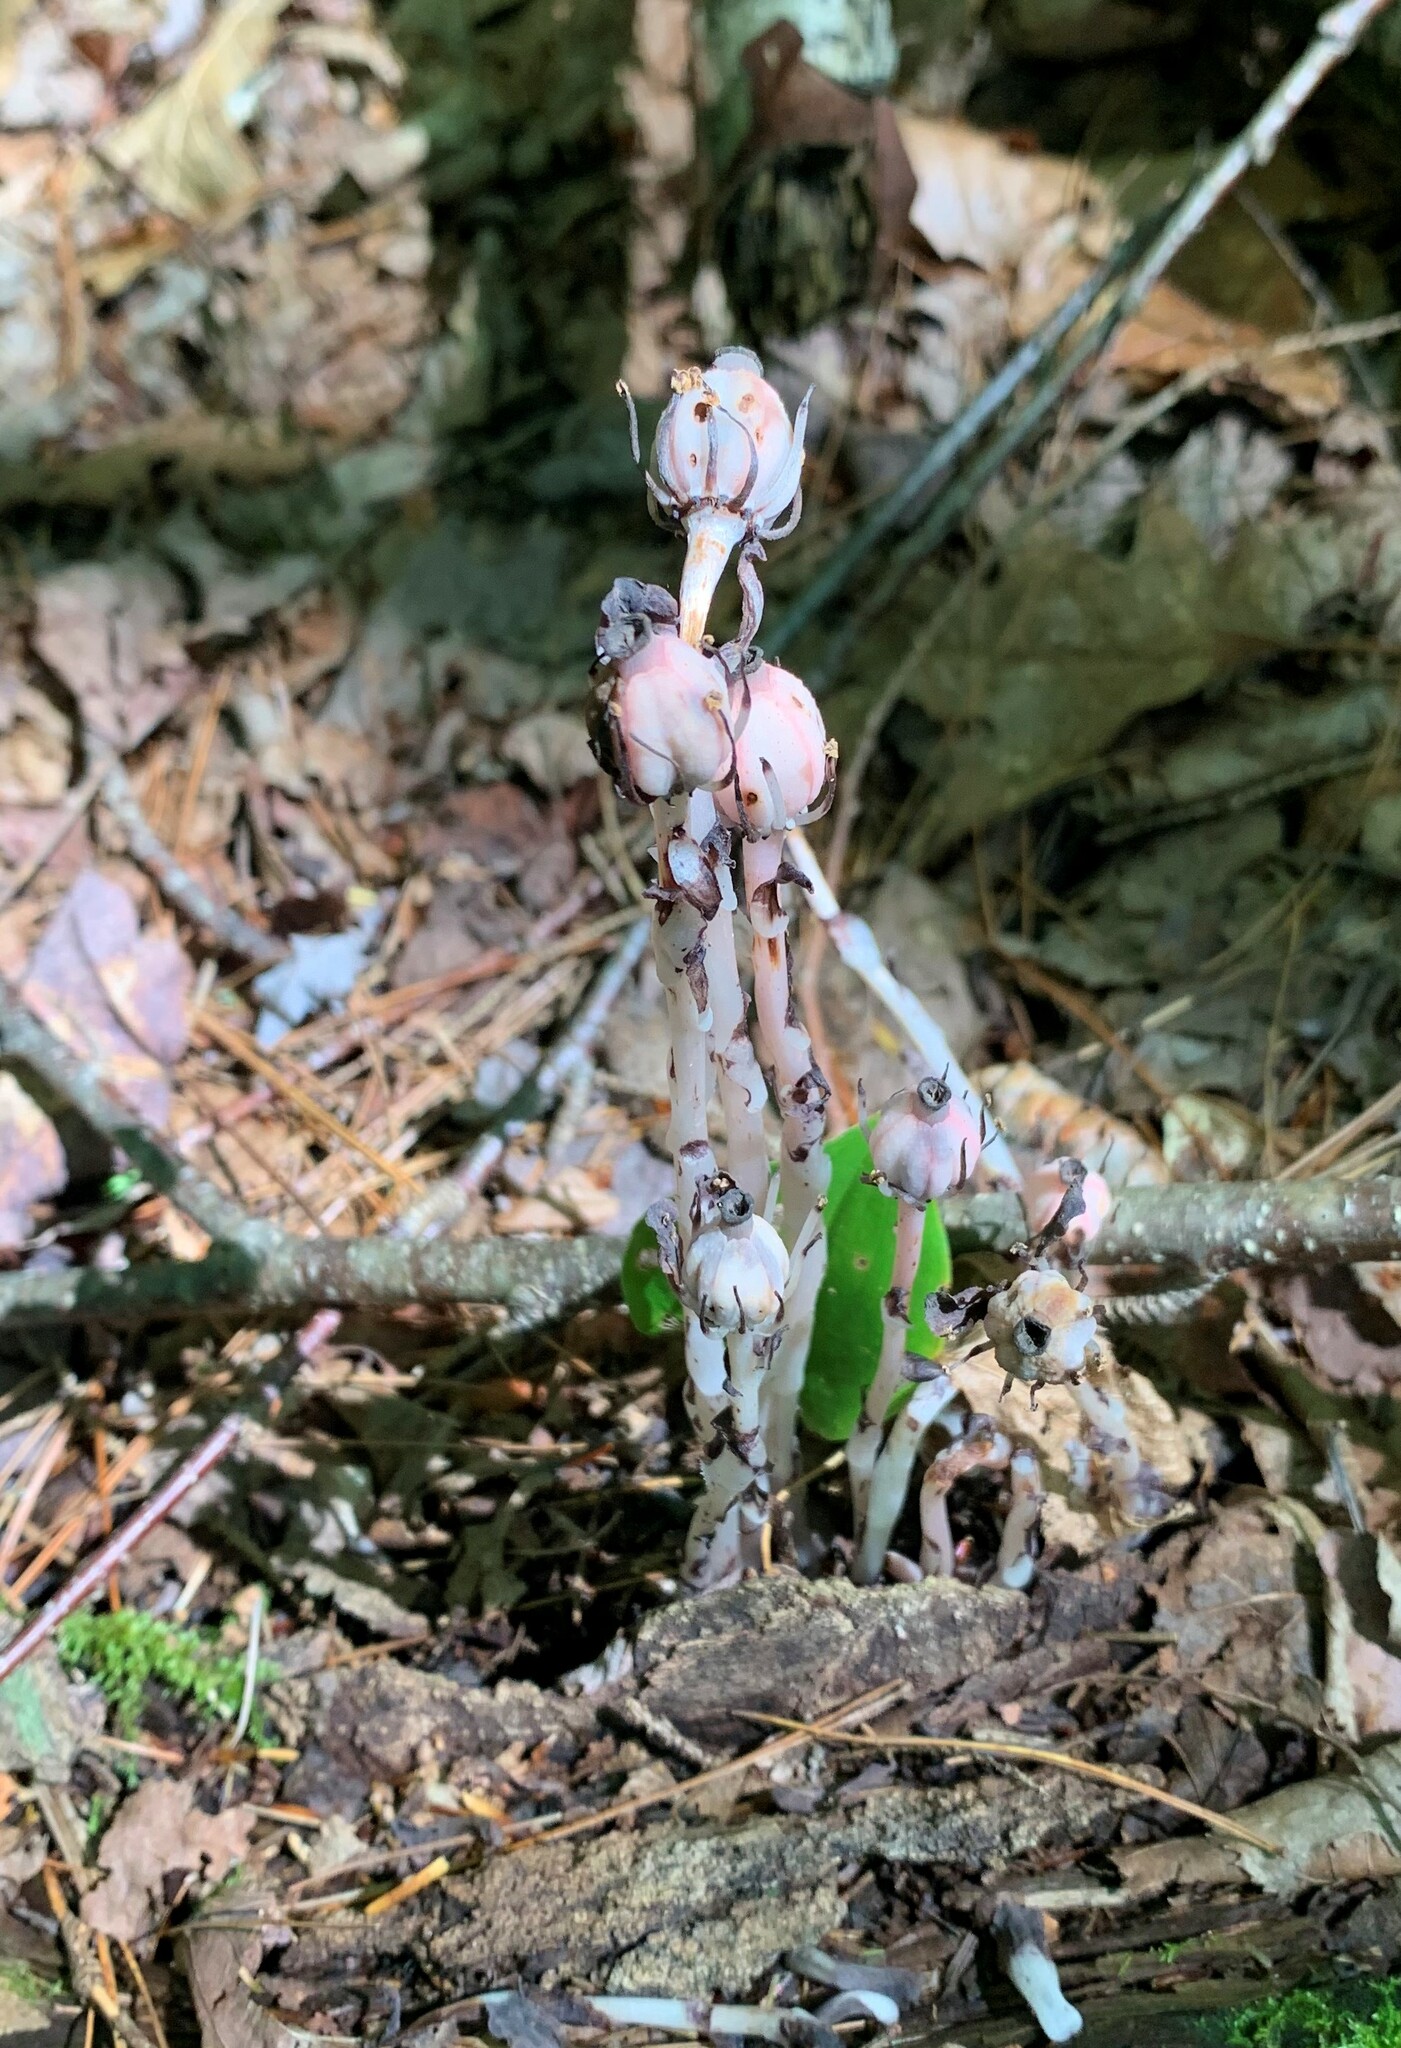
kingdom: Plantae
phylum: Tracheophyta
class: Magnoliopsida
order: Ericales
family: Ericaceae
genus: Monotropa
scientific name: Monotropa uniflora
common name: Convulsion root
